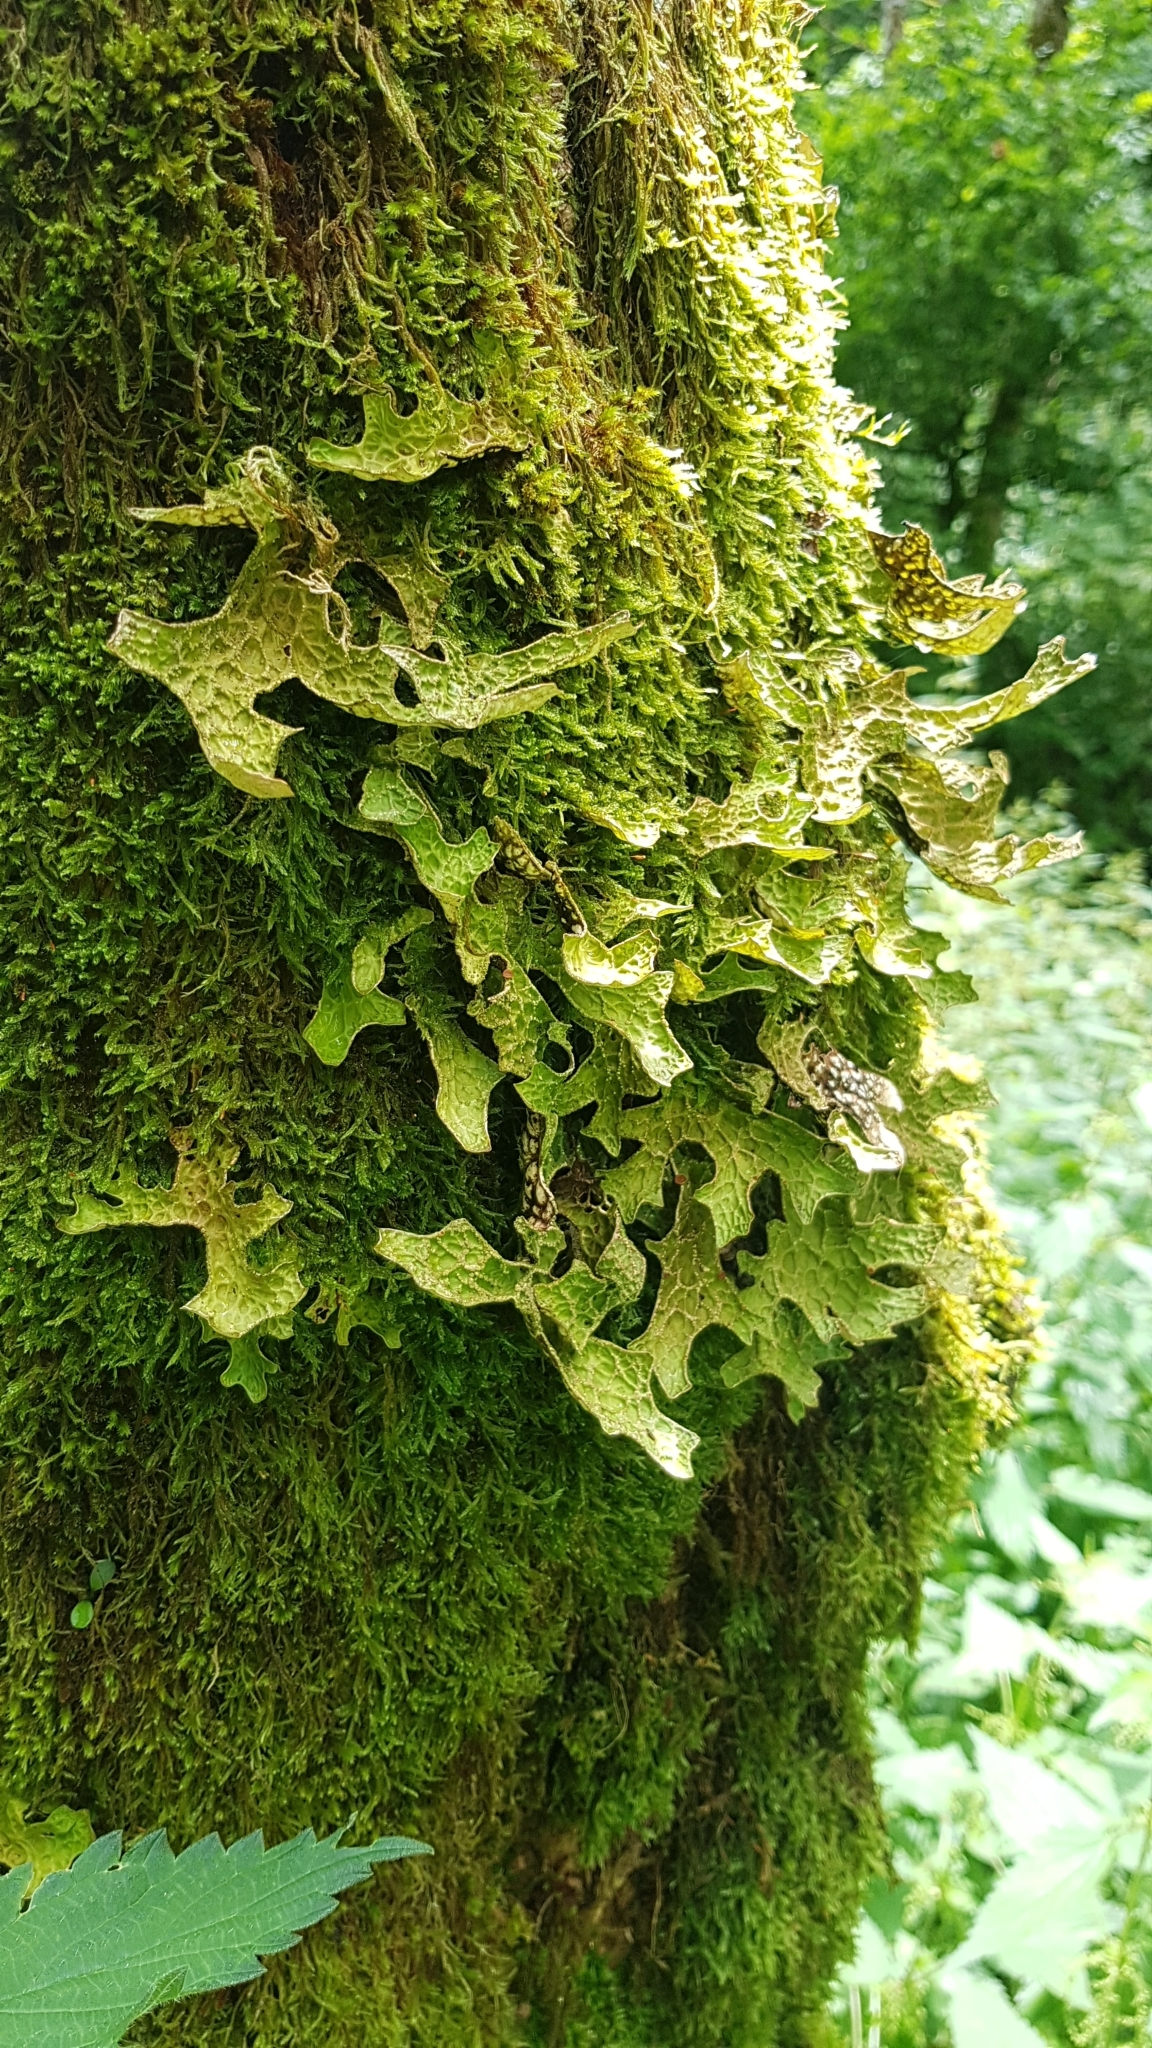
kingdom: Fungi
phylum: Ascomycota
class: Lecanoromycetes
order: Peltigerales
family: Lobariaceae
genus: Lobaria
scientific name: Lobaria pulmonaria
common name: Lungwort
